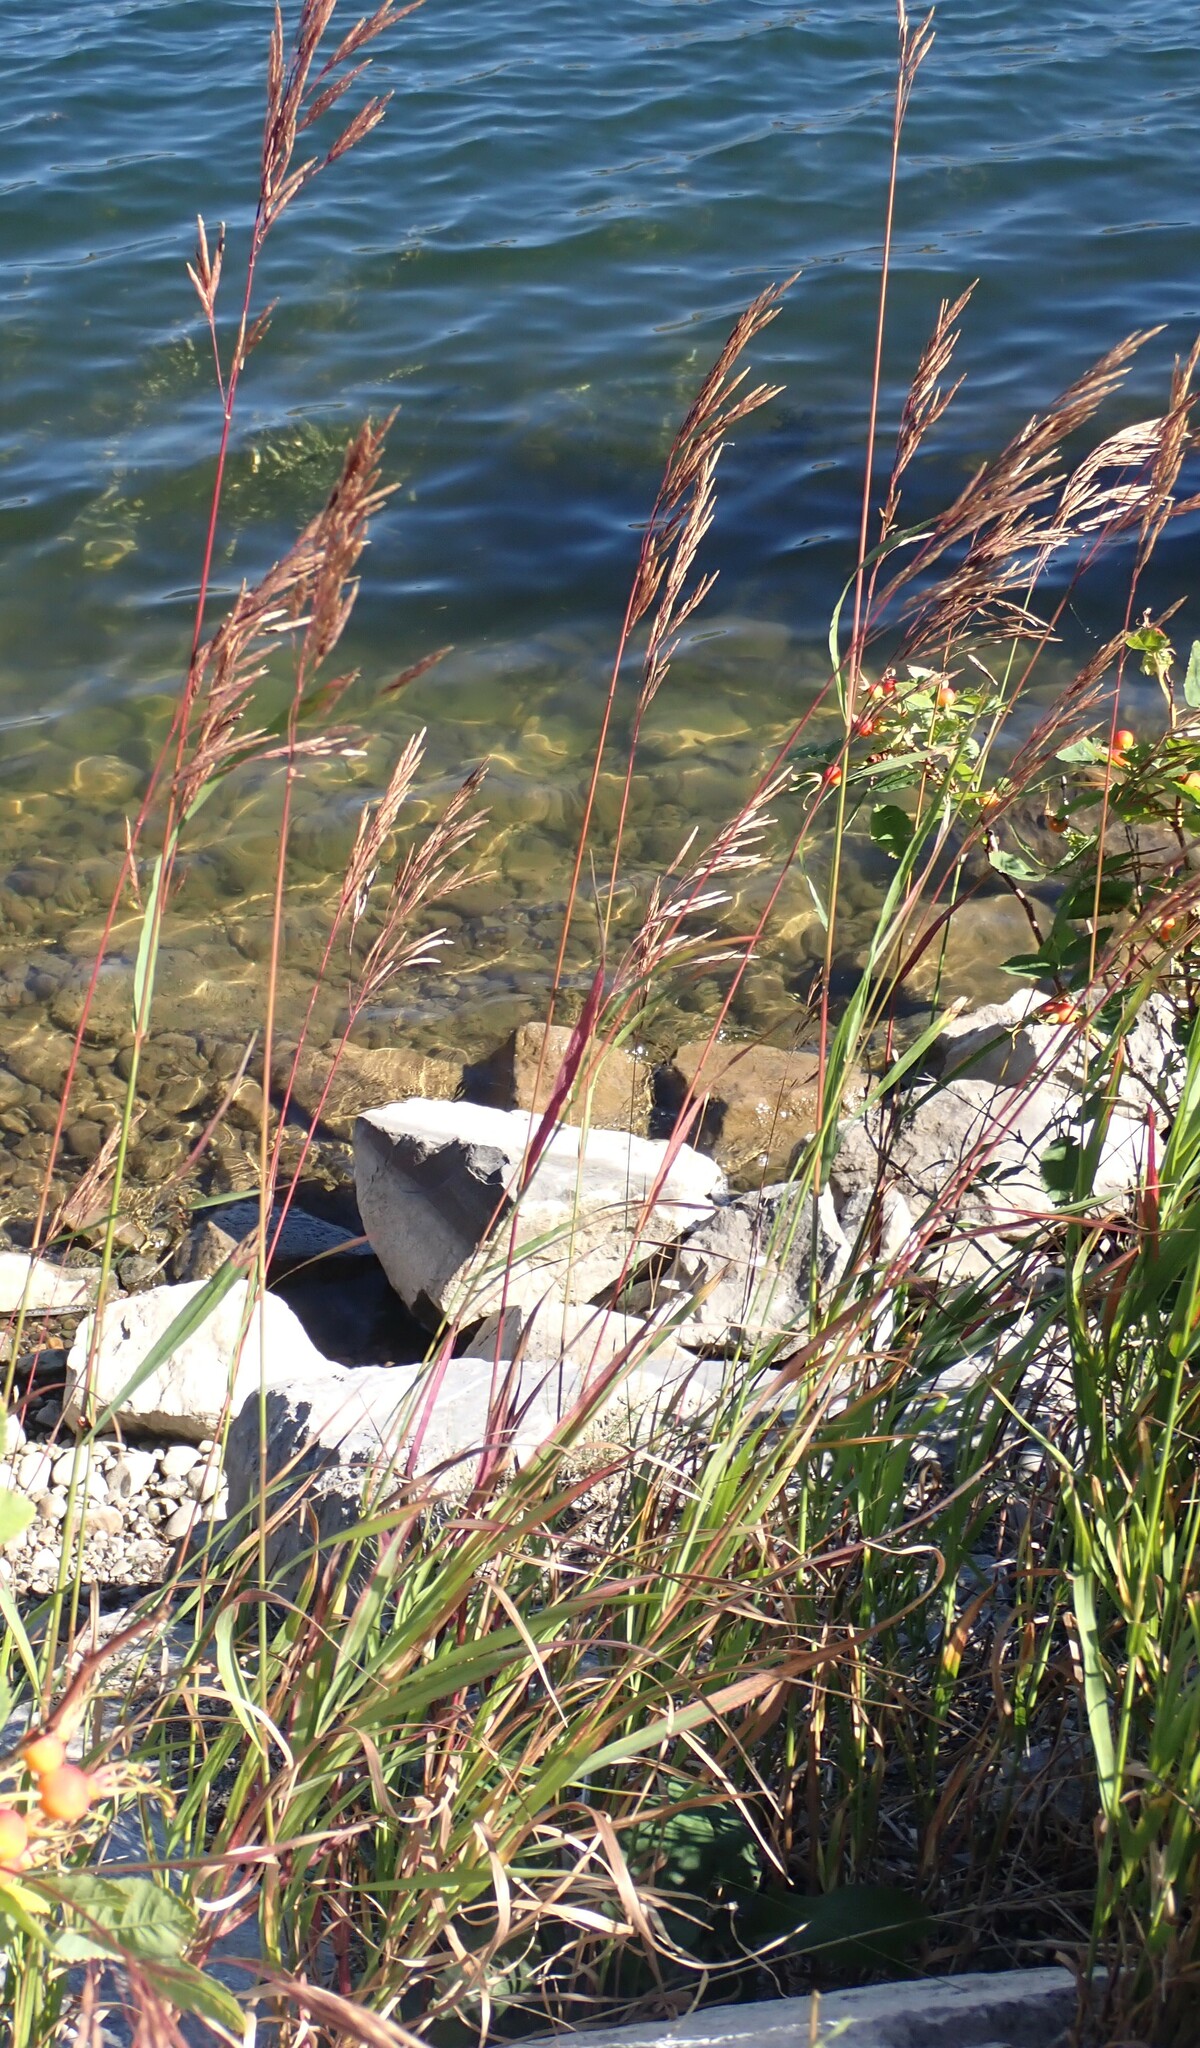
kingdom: Plantae
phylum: Tracheophyta
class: Liliopsida
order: Poales
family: Poaceae
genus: Bromus
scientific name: Bromus inermis
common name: Smooth brome
